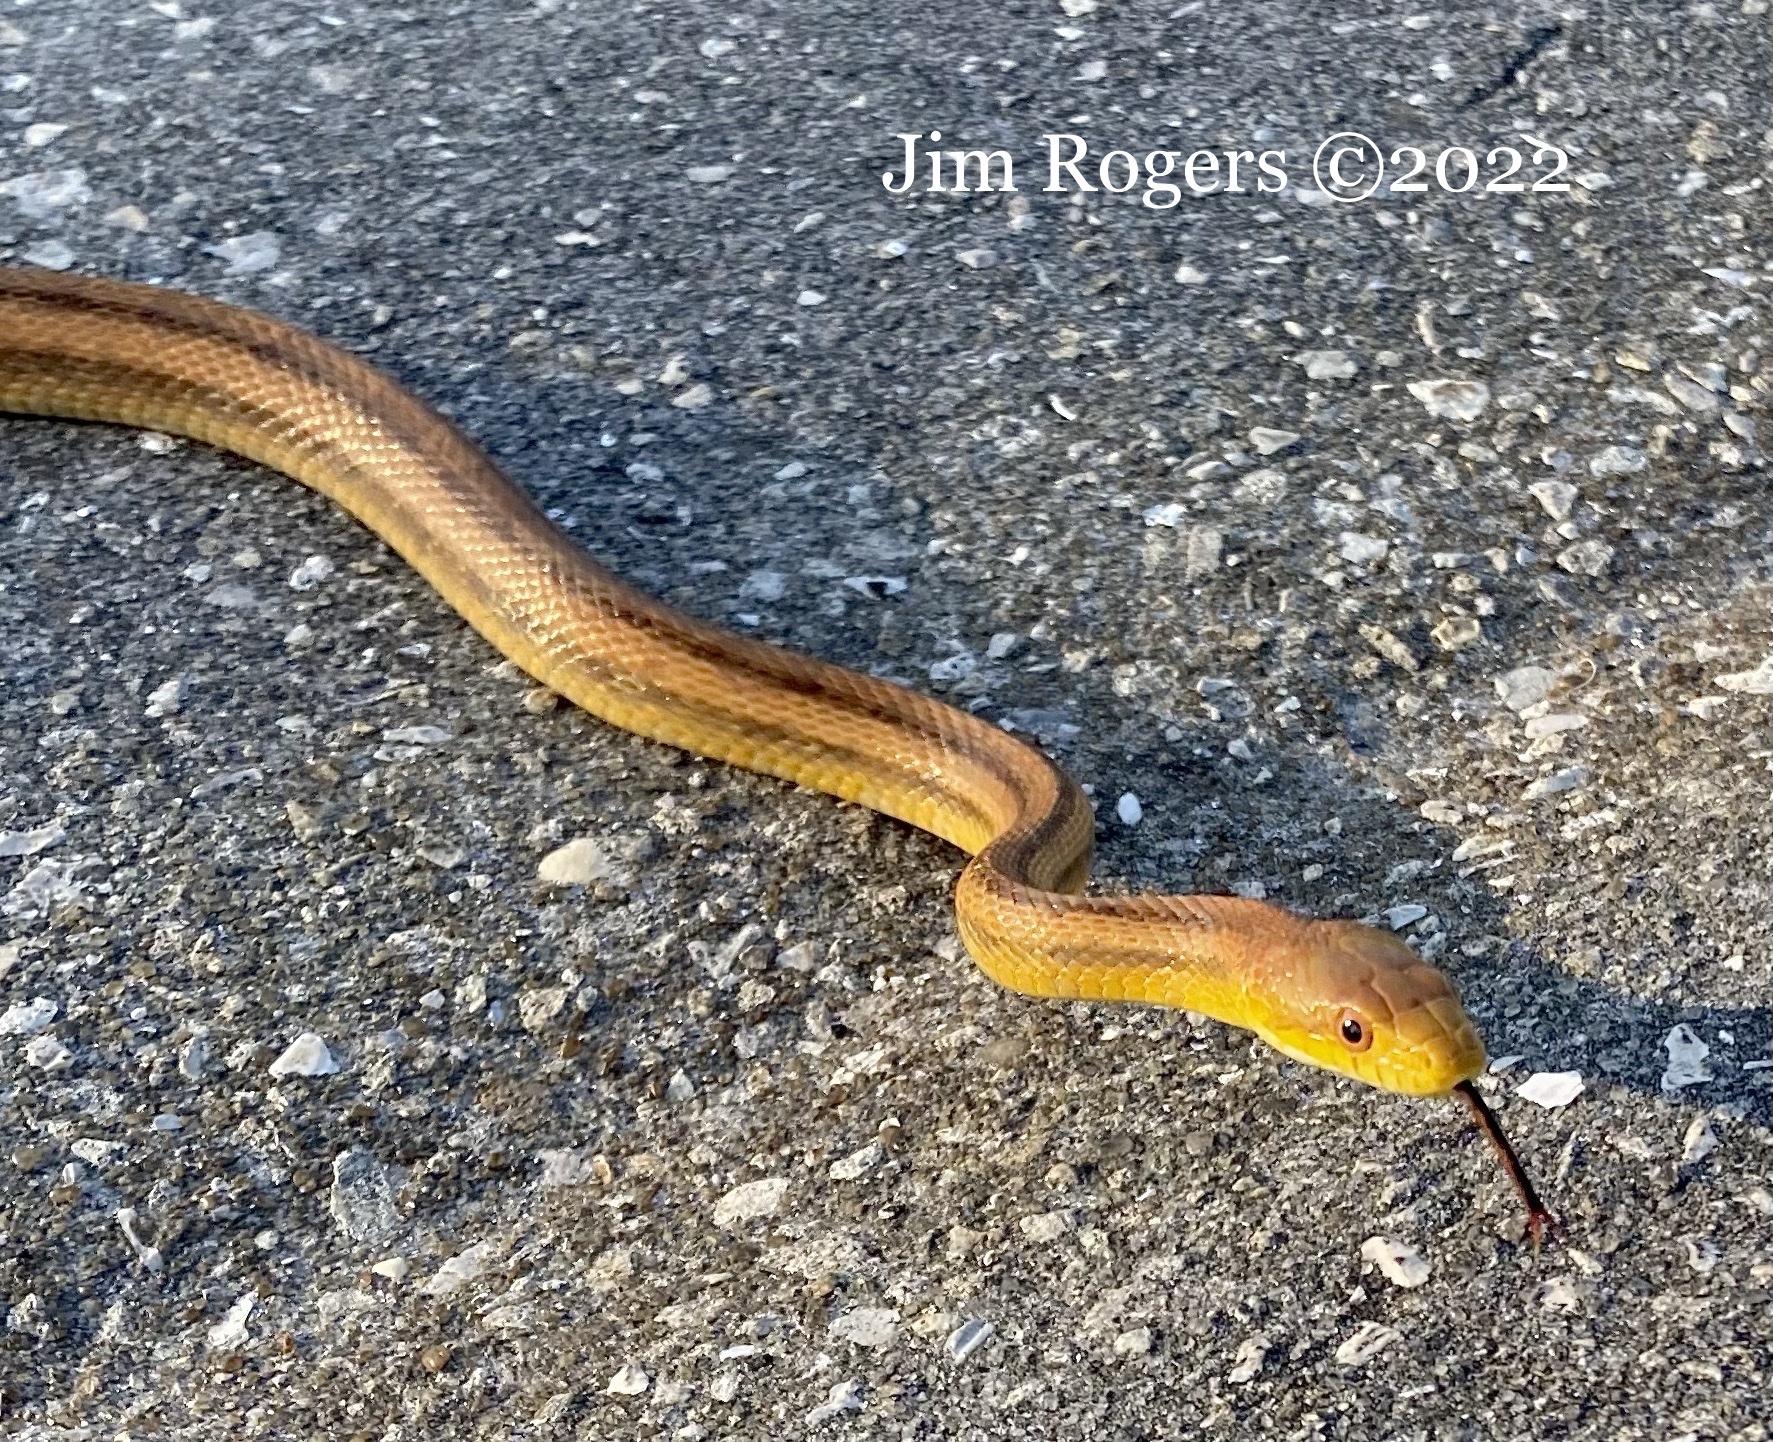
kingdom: Animalia
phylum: Chordata
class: Squamata
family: Colubridae
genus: Pantherophis
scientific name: Pantherophis alleghaniensis
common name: Eastern rat snake
